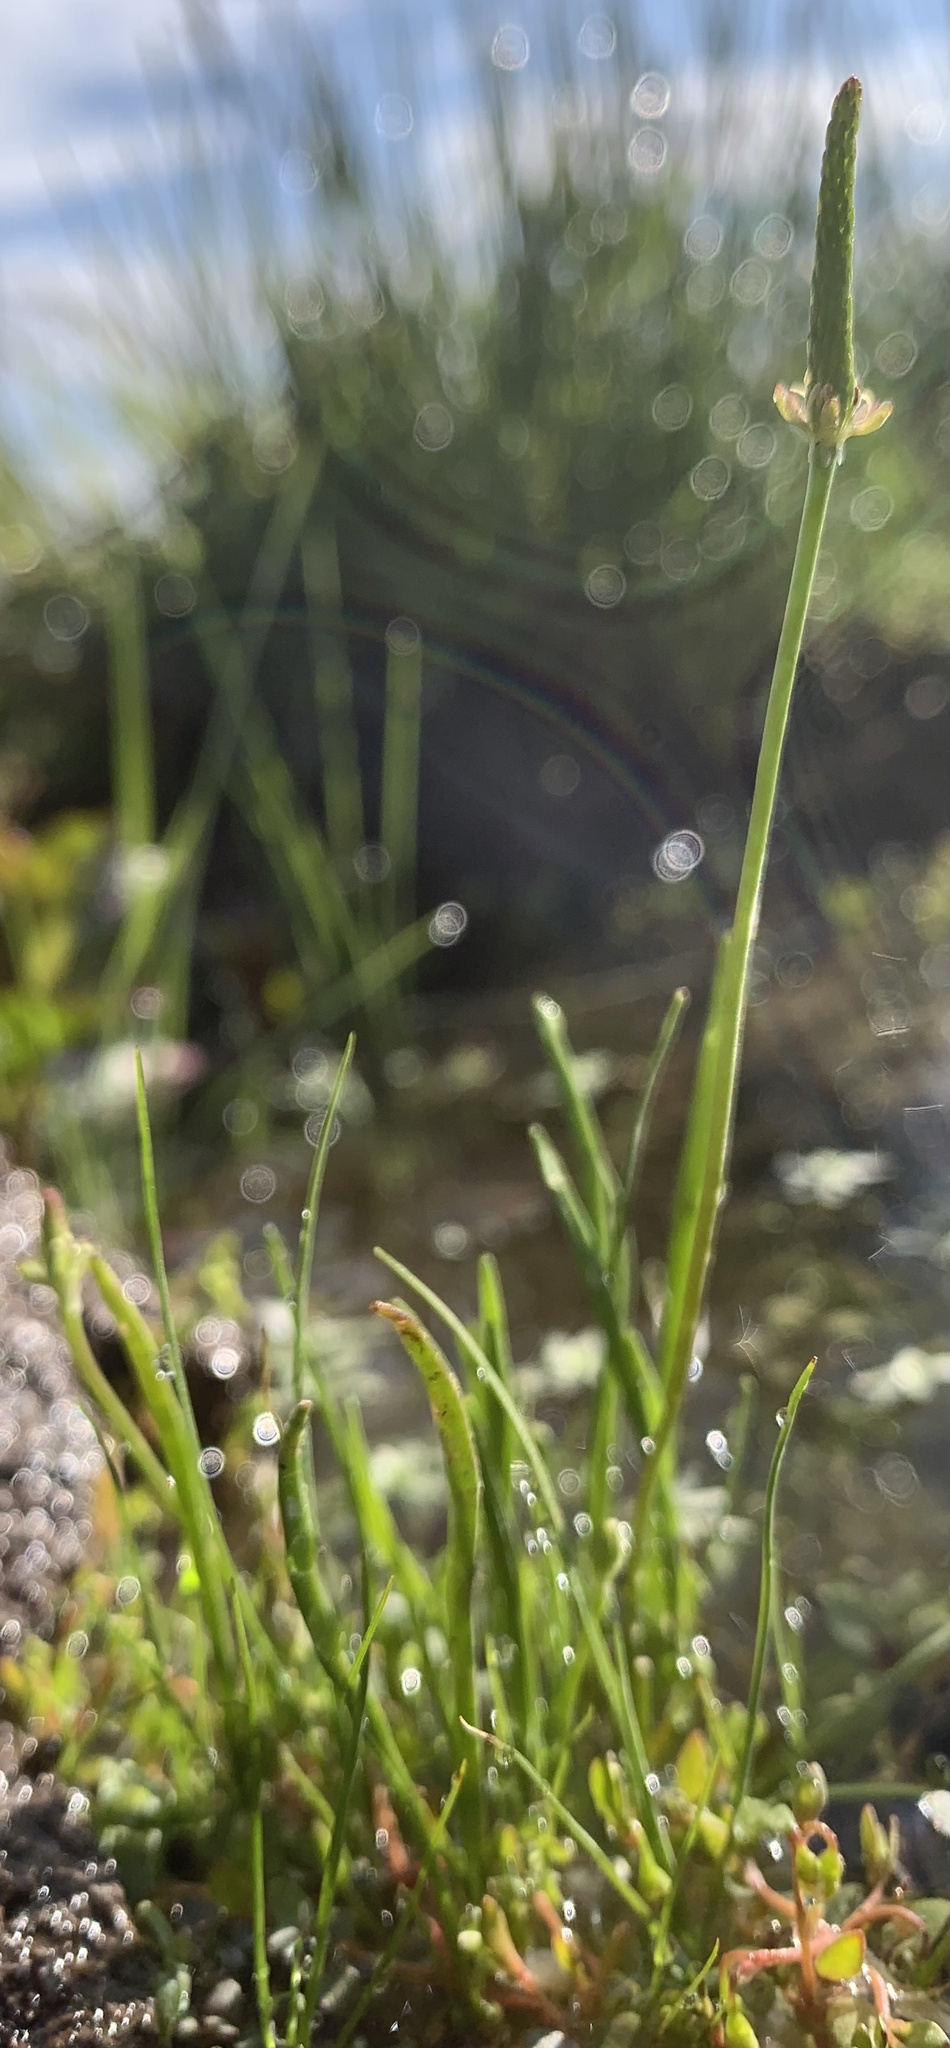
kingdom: Plantae
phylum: Tracheophyta
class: Magnoliopsida
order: Ranunculales
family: Ranunculaceae
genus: Myosurus
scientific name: Myosurus minimus
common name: Mousetail
